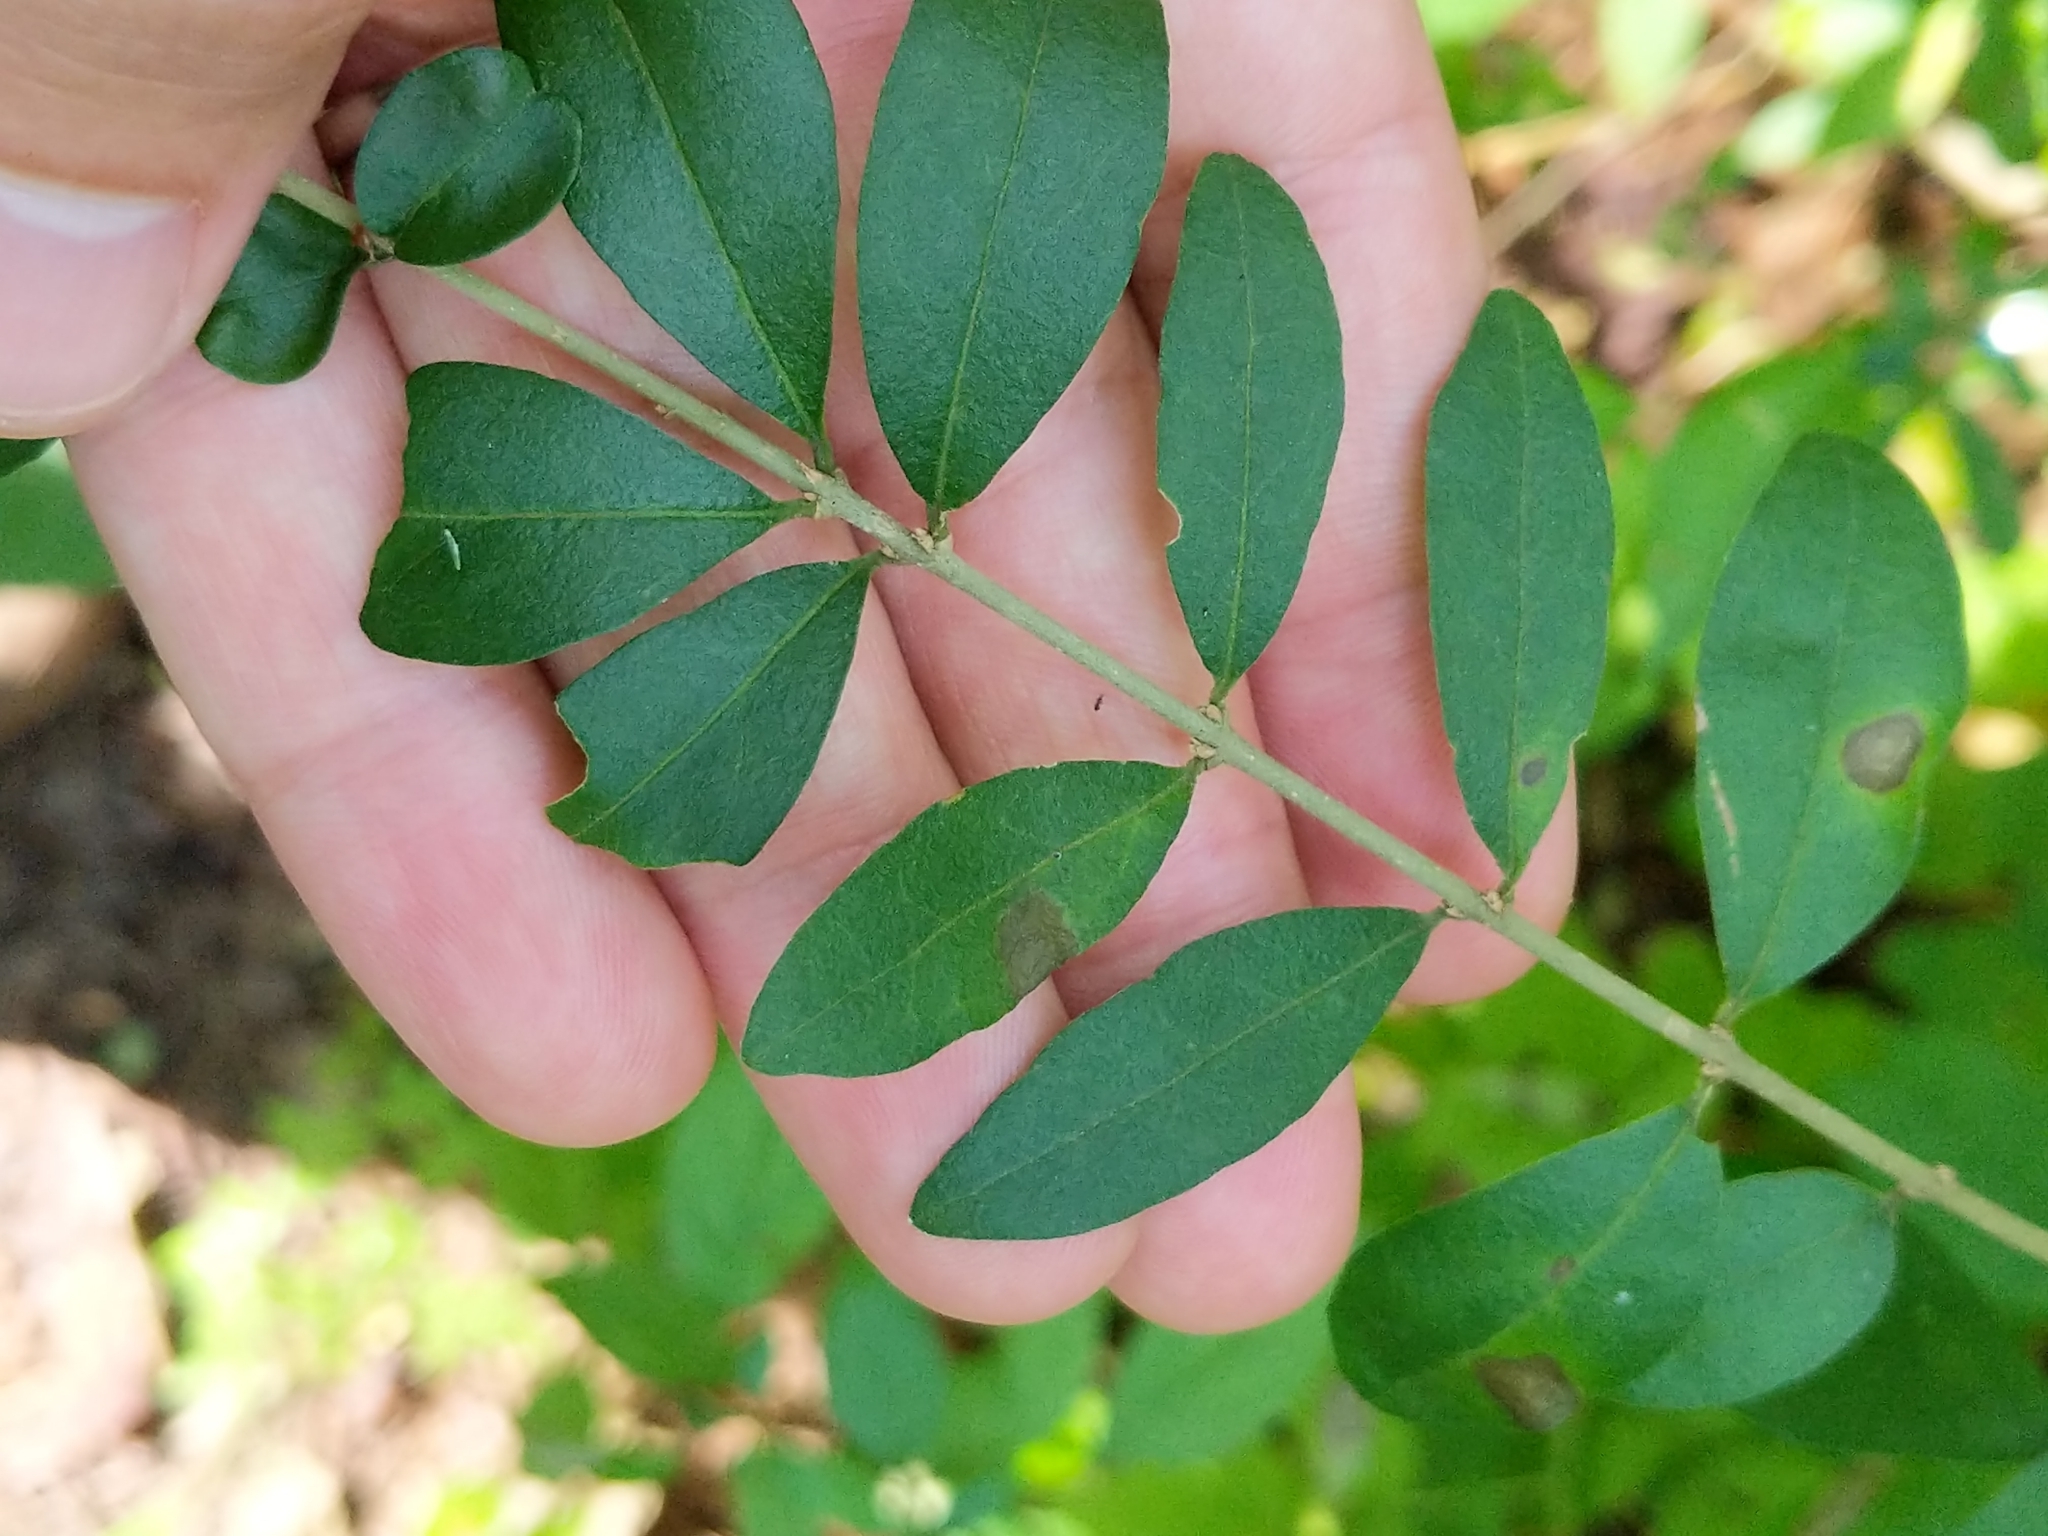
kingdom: Plantae
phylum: Tracheophyta
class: Magnoliopsida
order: Lamiales
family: Oleaceae
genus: Ligustrum
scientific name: Ligustrum obtusifolium
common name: Border privet
